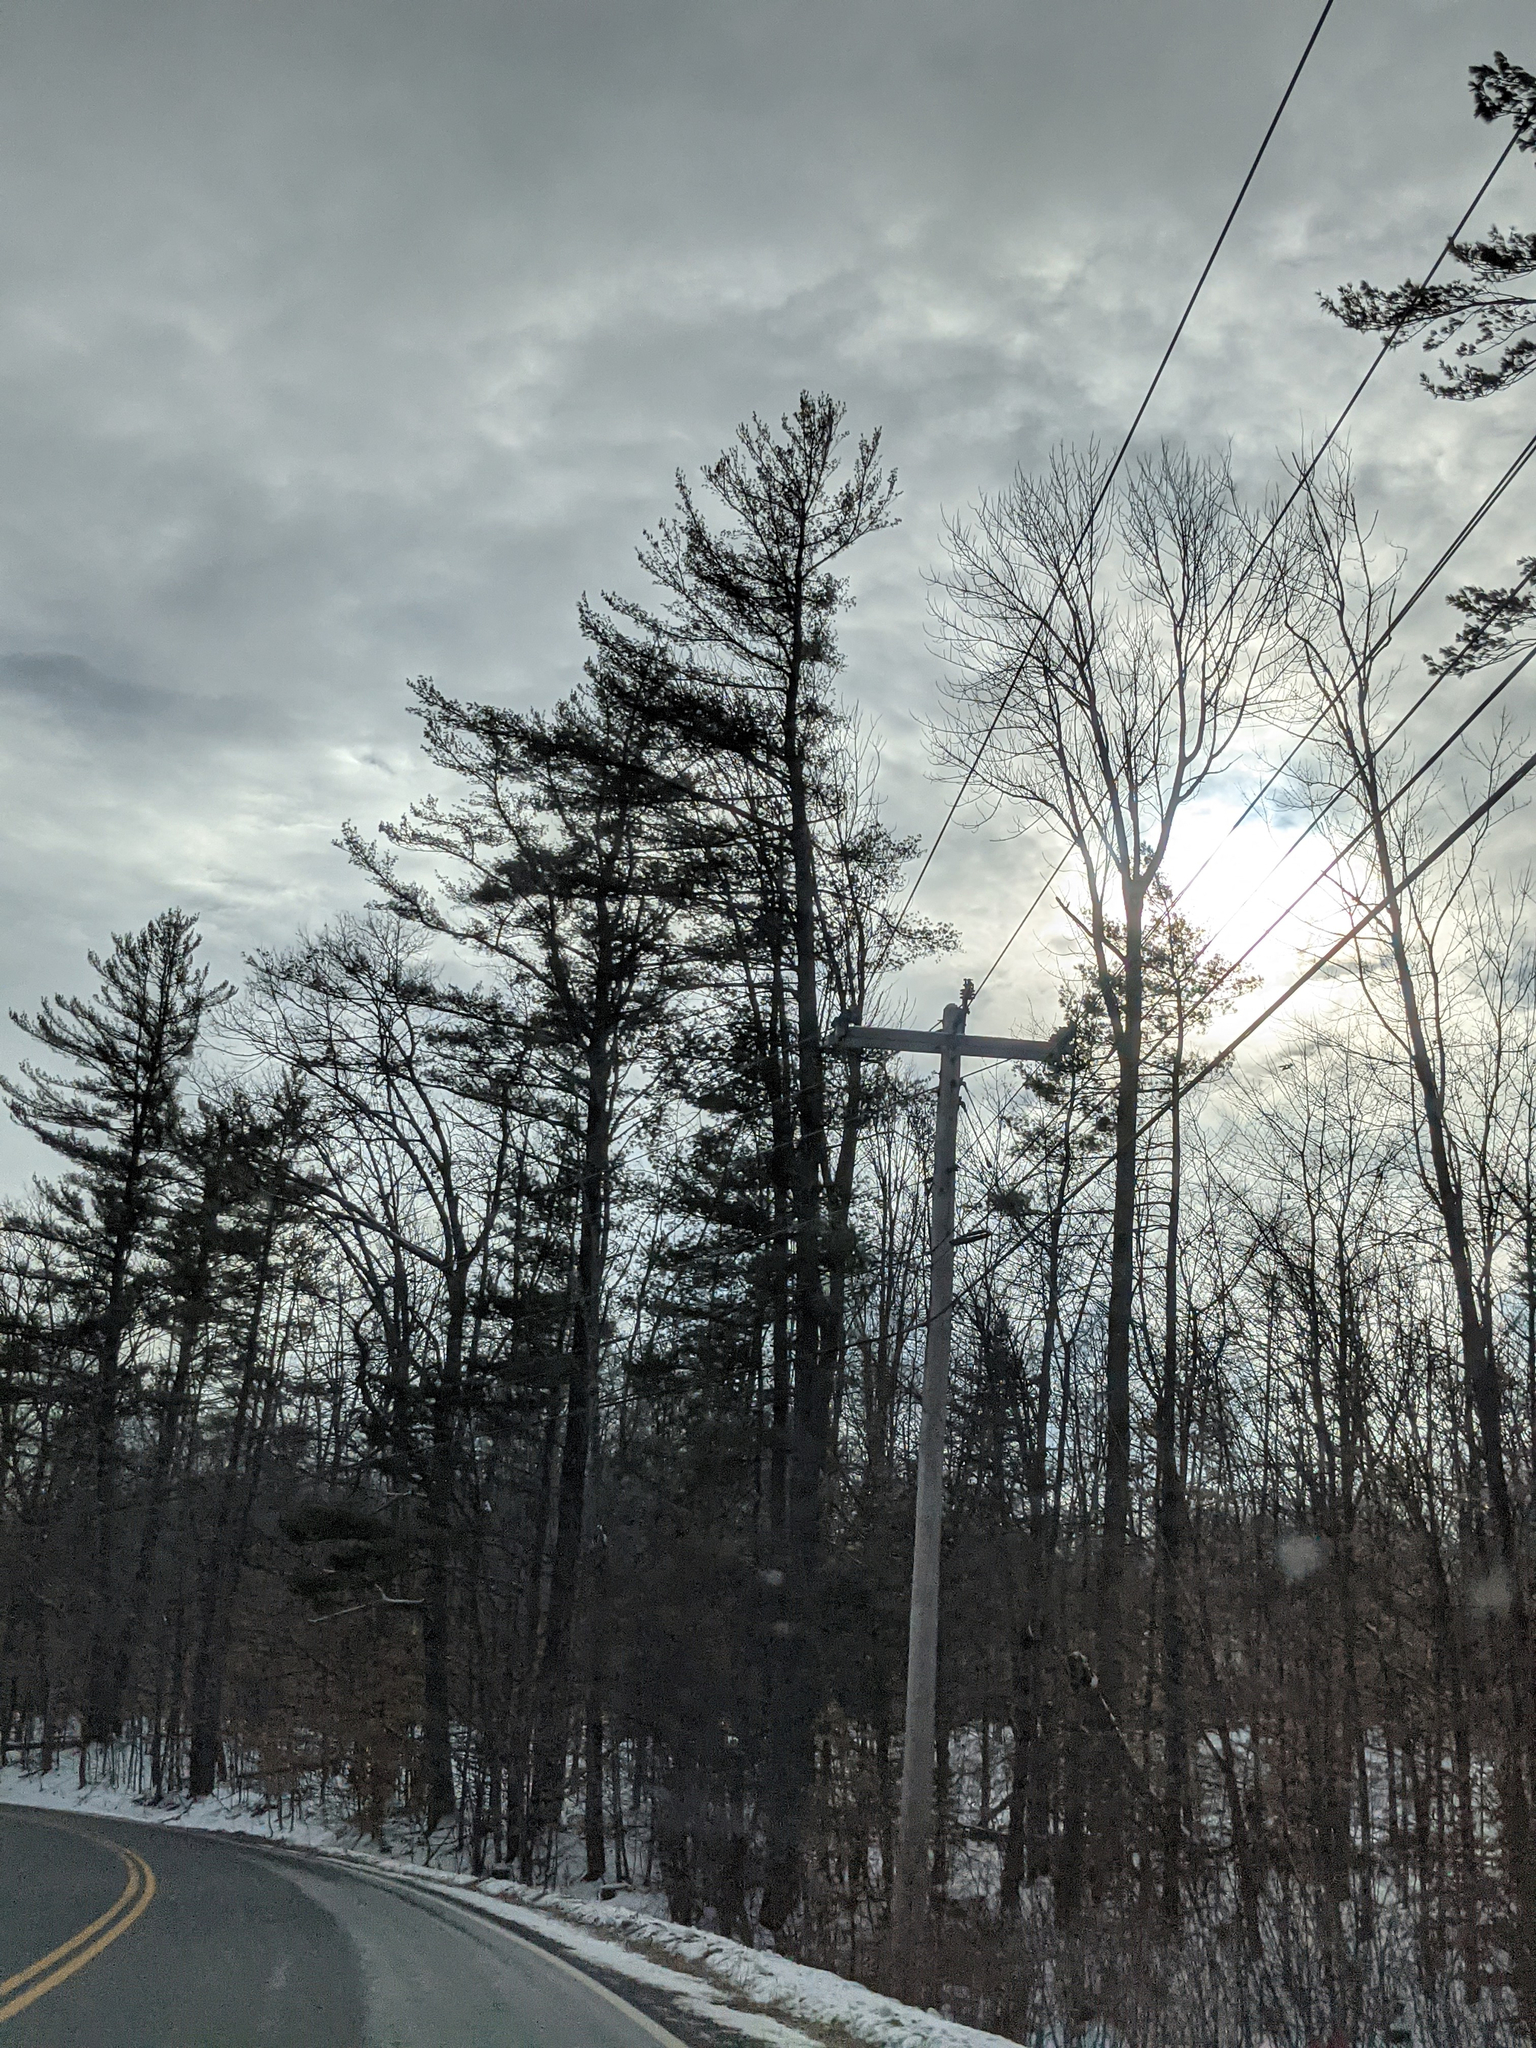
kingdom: Plantae
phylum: Tracheophyta
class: Pinopsida
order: Pinales
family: Pinaceae
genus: Pinus
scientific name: Pinus strobus
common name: Weymouth pine
